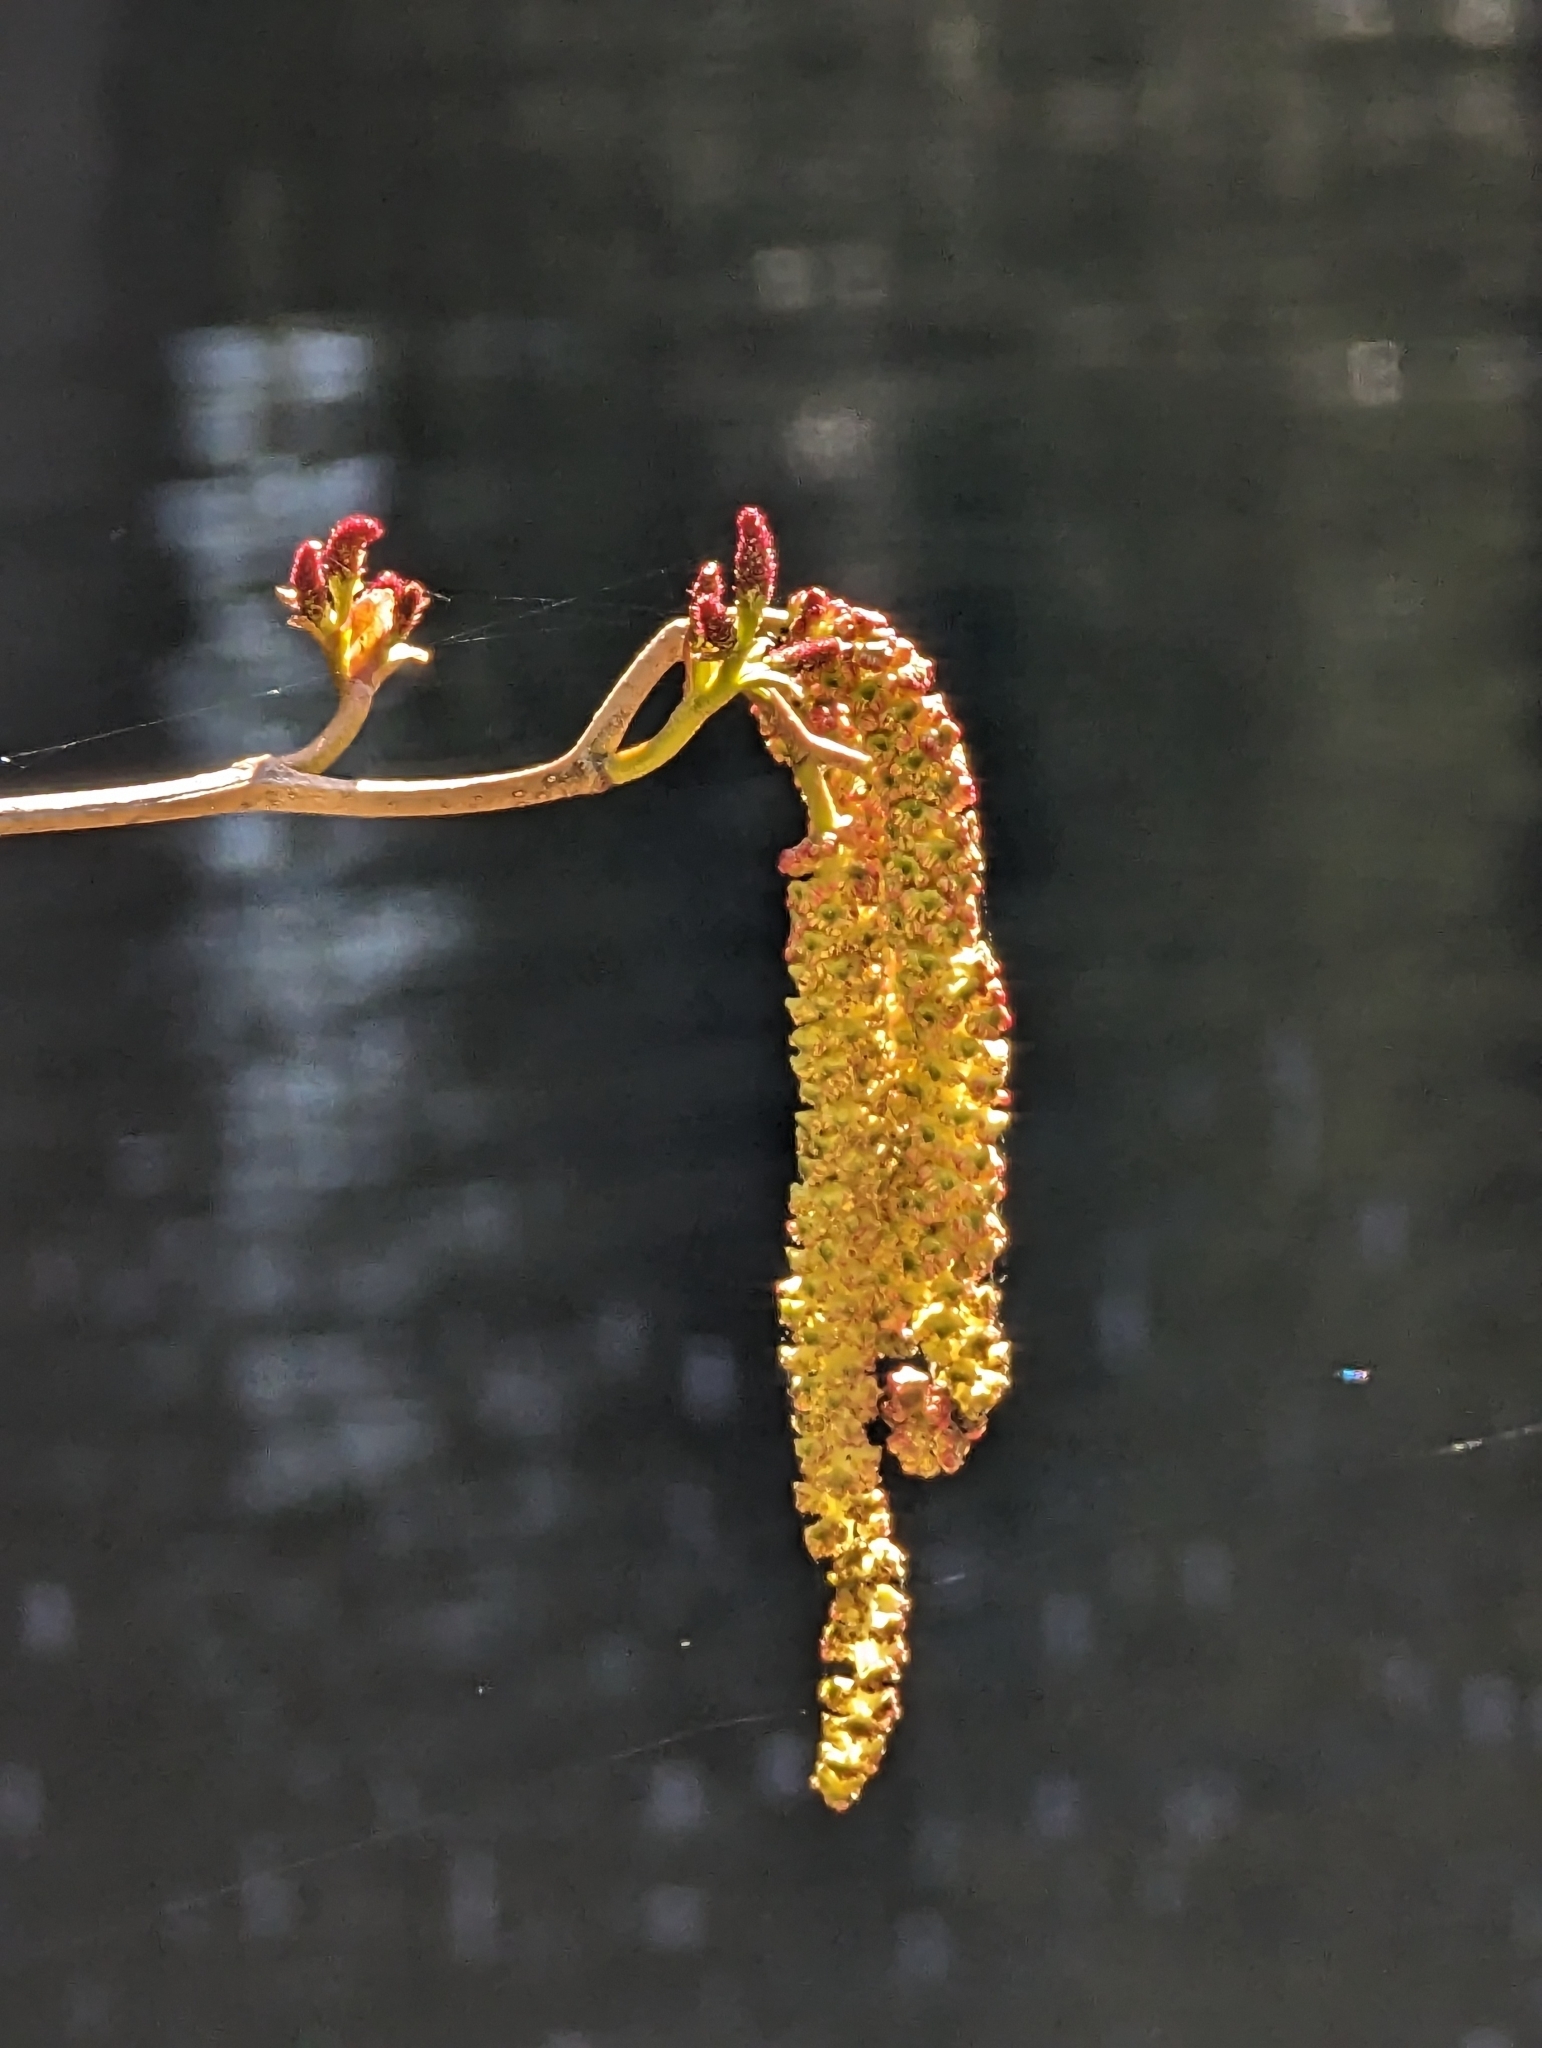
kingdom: Plantae
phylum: Tracheophyta
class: Magnoliopsida
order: Fagales
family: Betulaceae
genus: Alnus
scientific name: Alnus rubra
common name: Red alder
